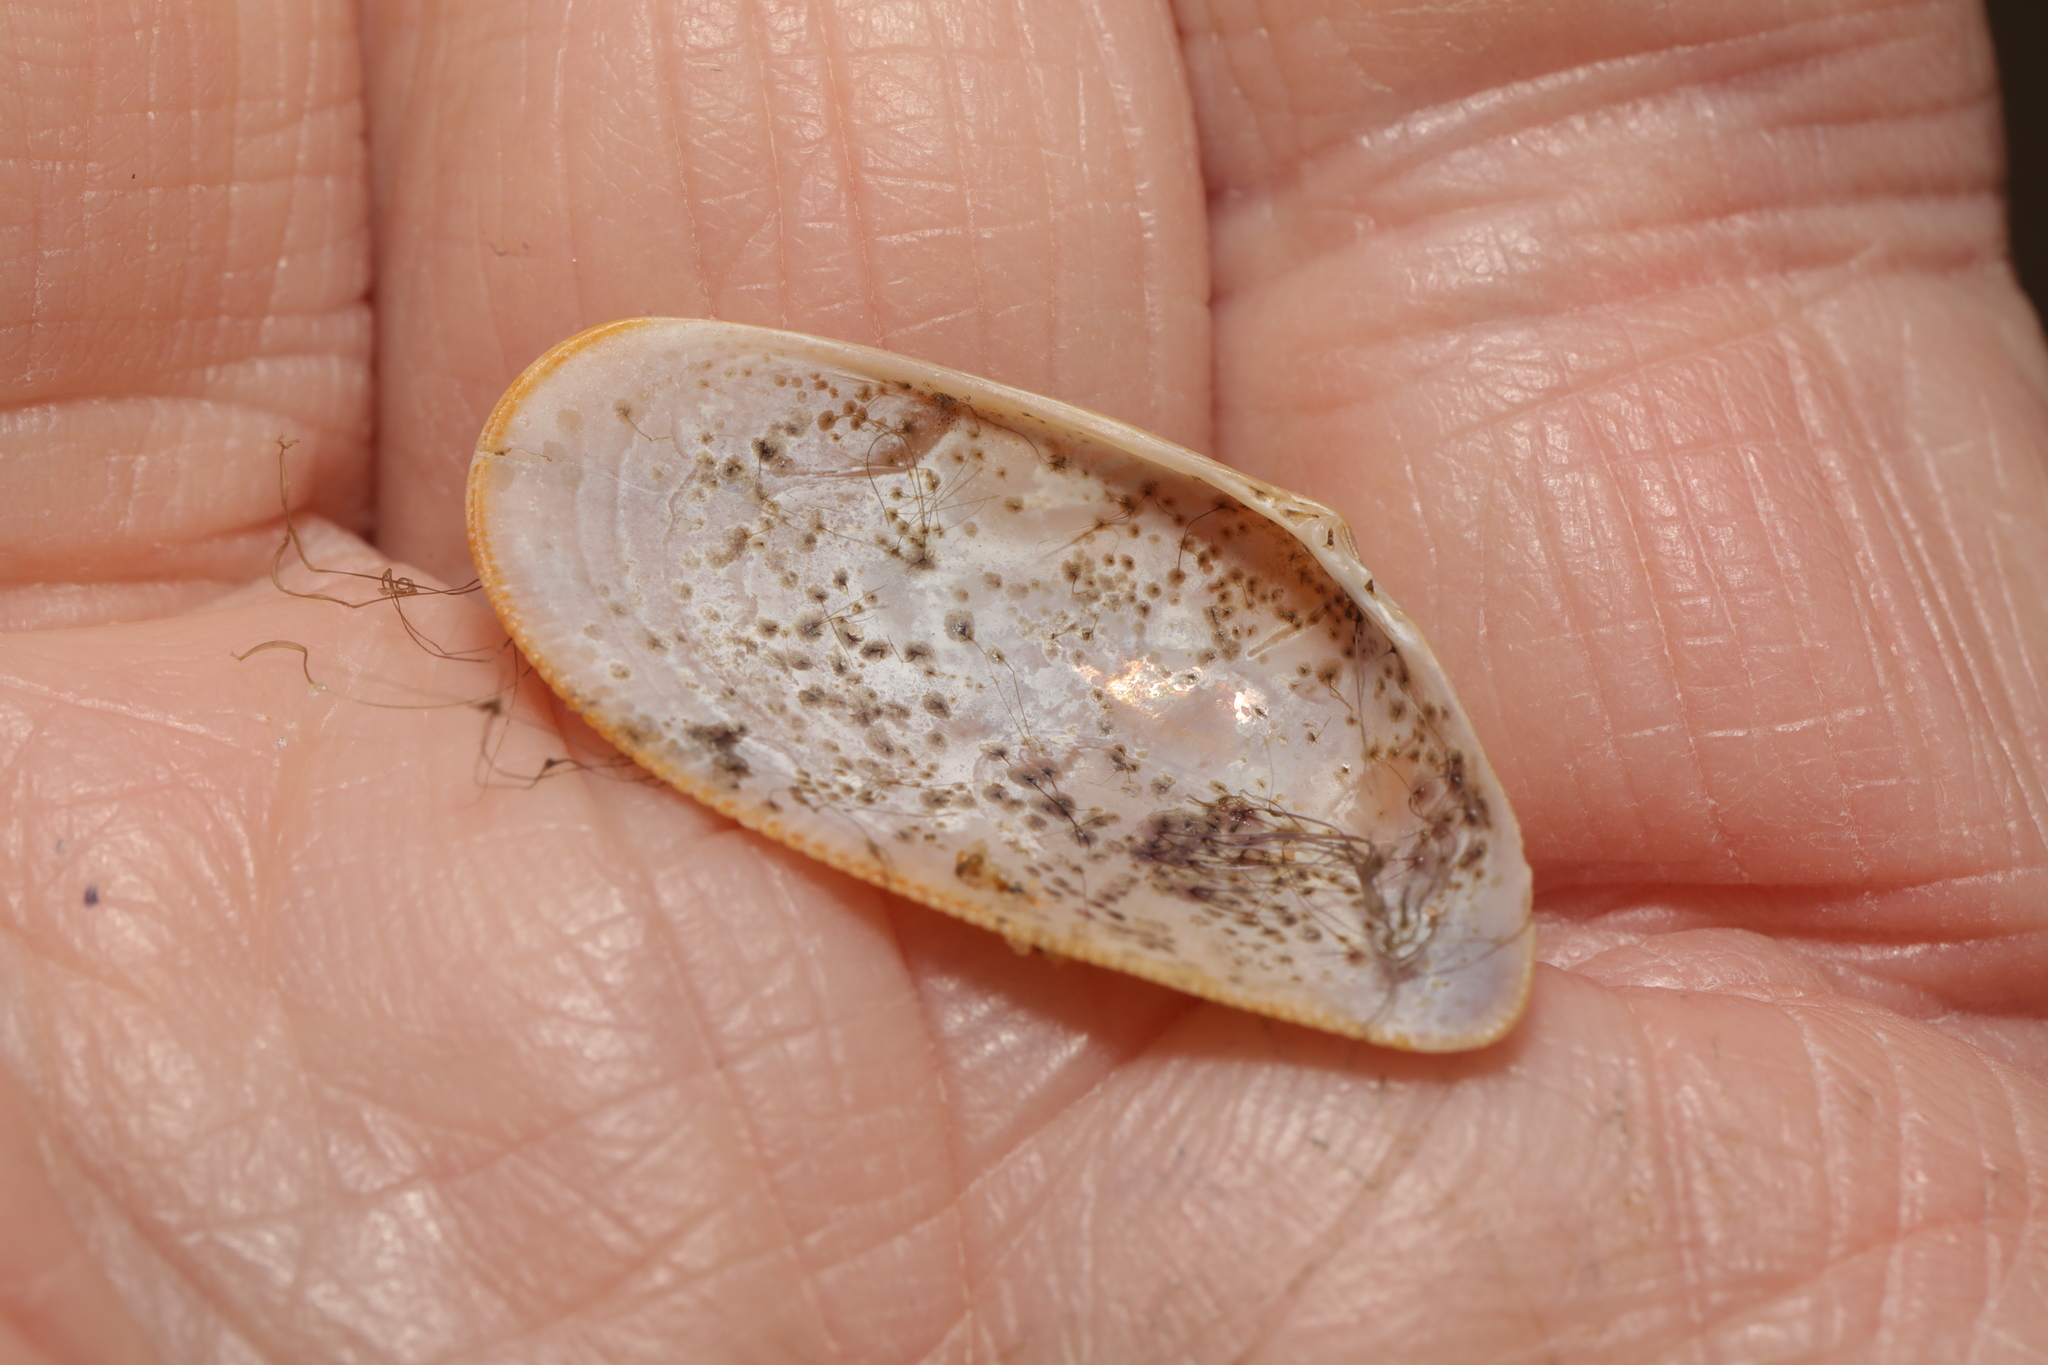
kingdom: Animalia
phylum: Mollusca
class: Bivalvia
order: Cardiida
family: Donacidae
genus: Donax
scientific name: Donax vittatus
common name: Banded wedge-shell
